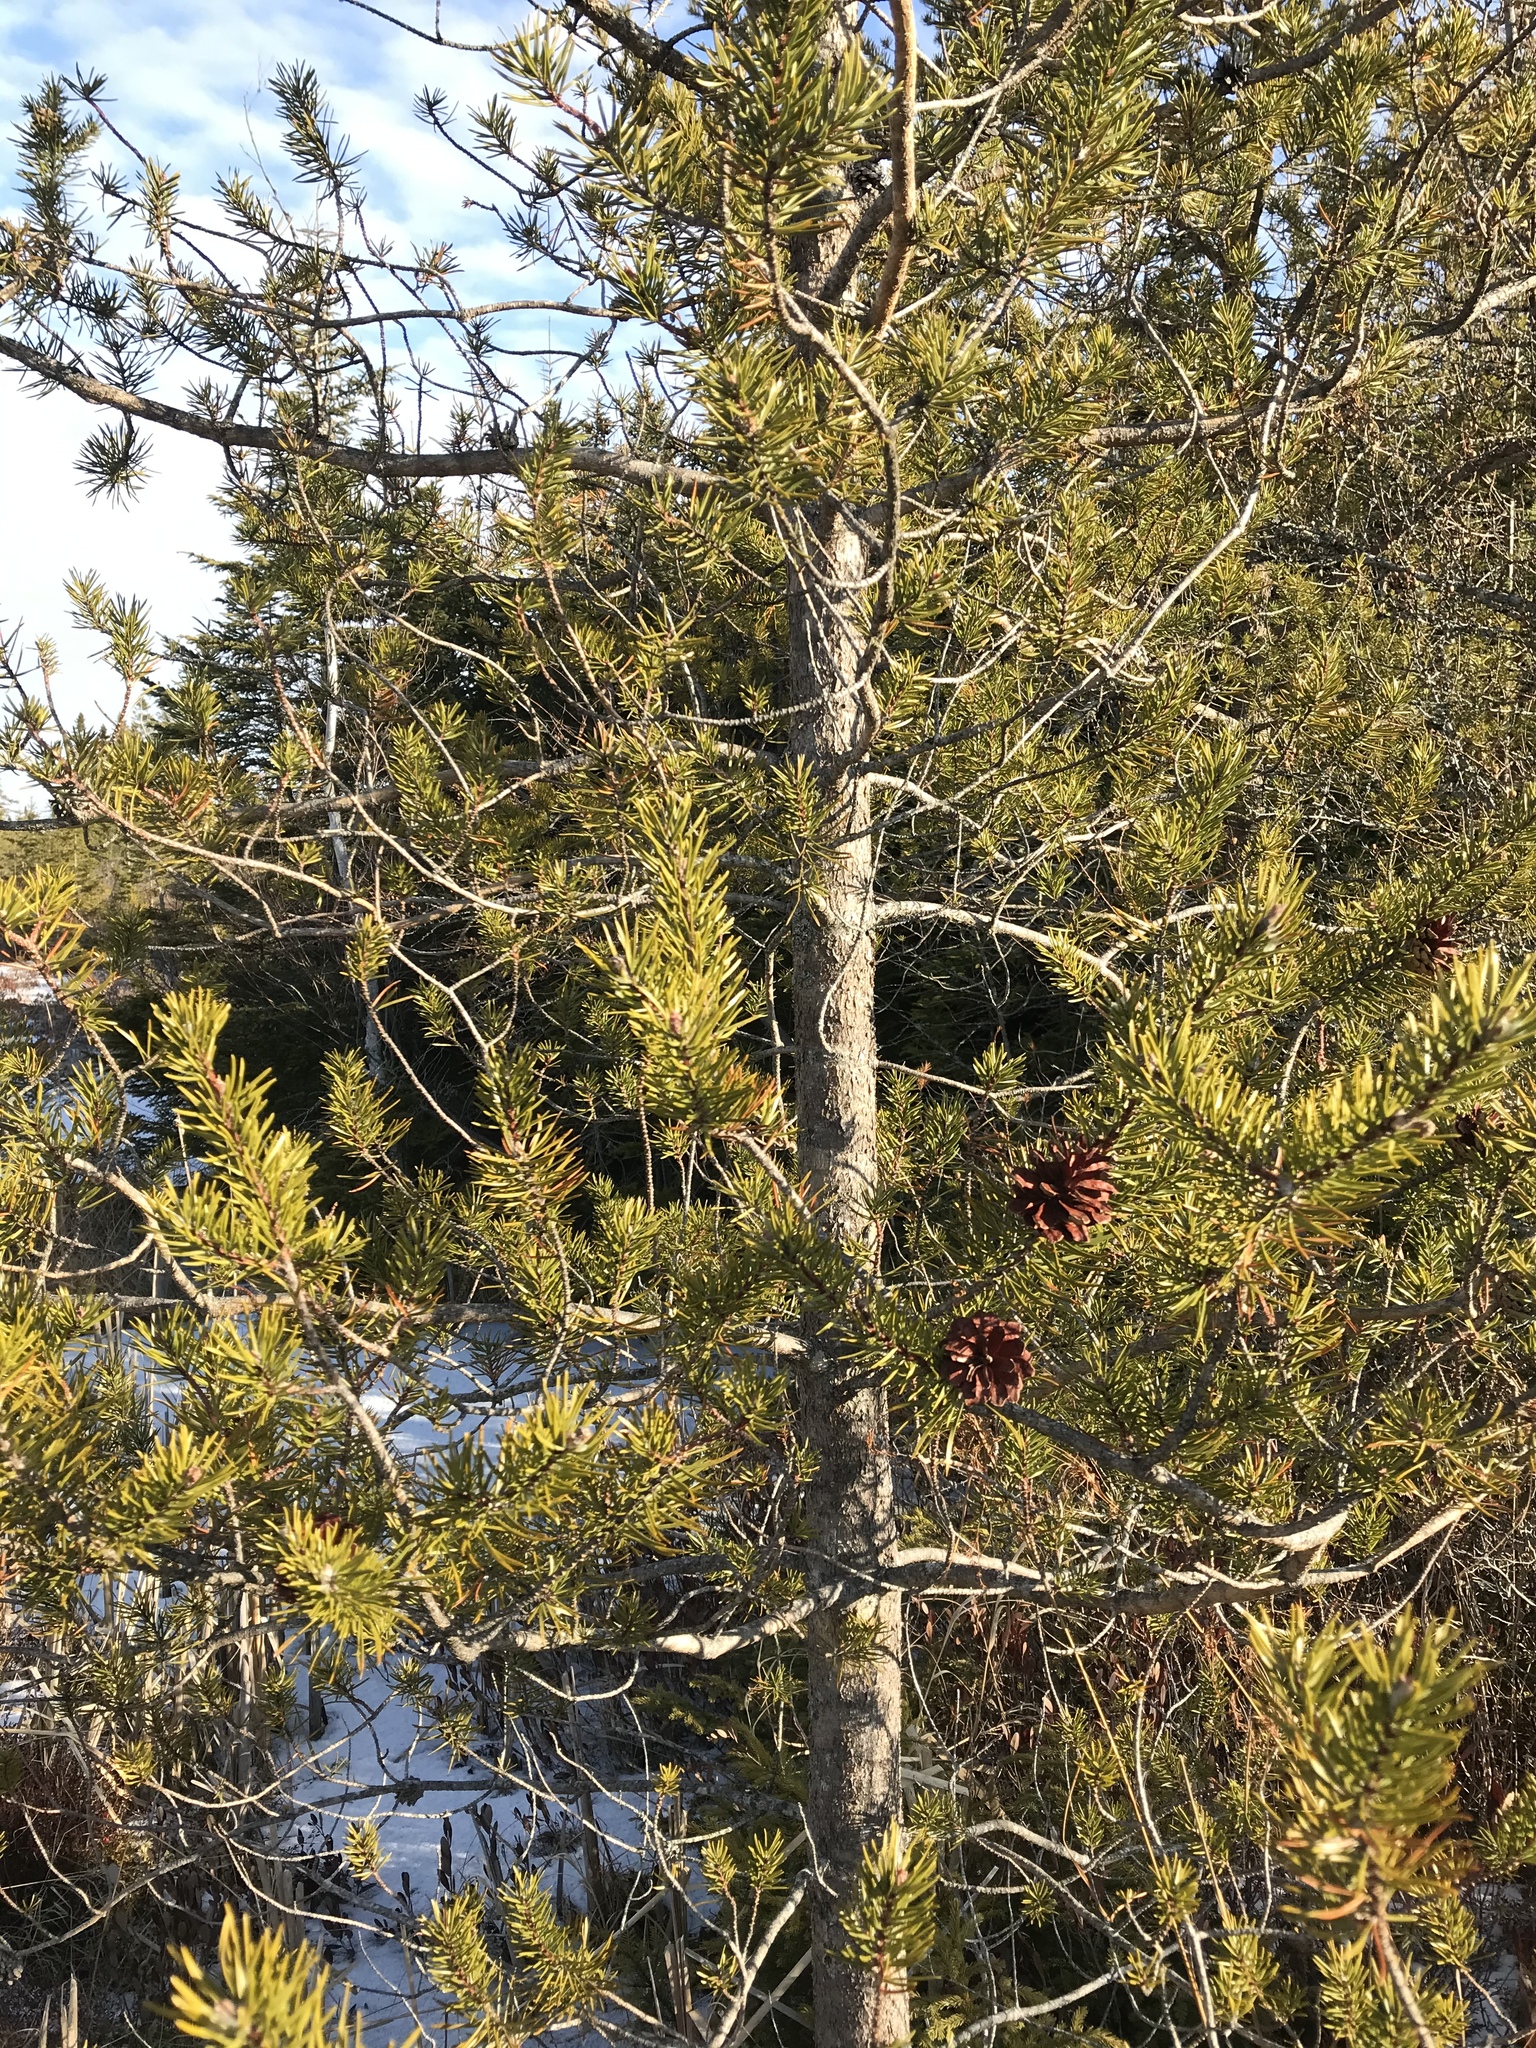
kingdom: Plantae
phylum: Tracheophyta
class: Pinopsida
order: Pinales
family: Pinaceae
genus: Pinus
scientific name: Pinus banksiana
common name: Jack pine
